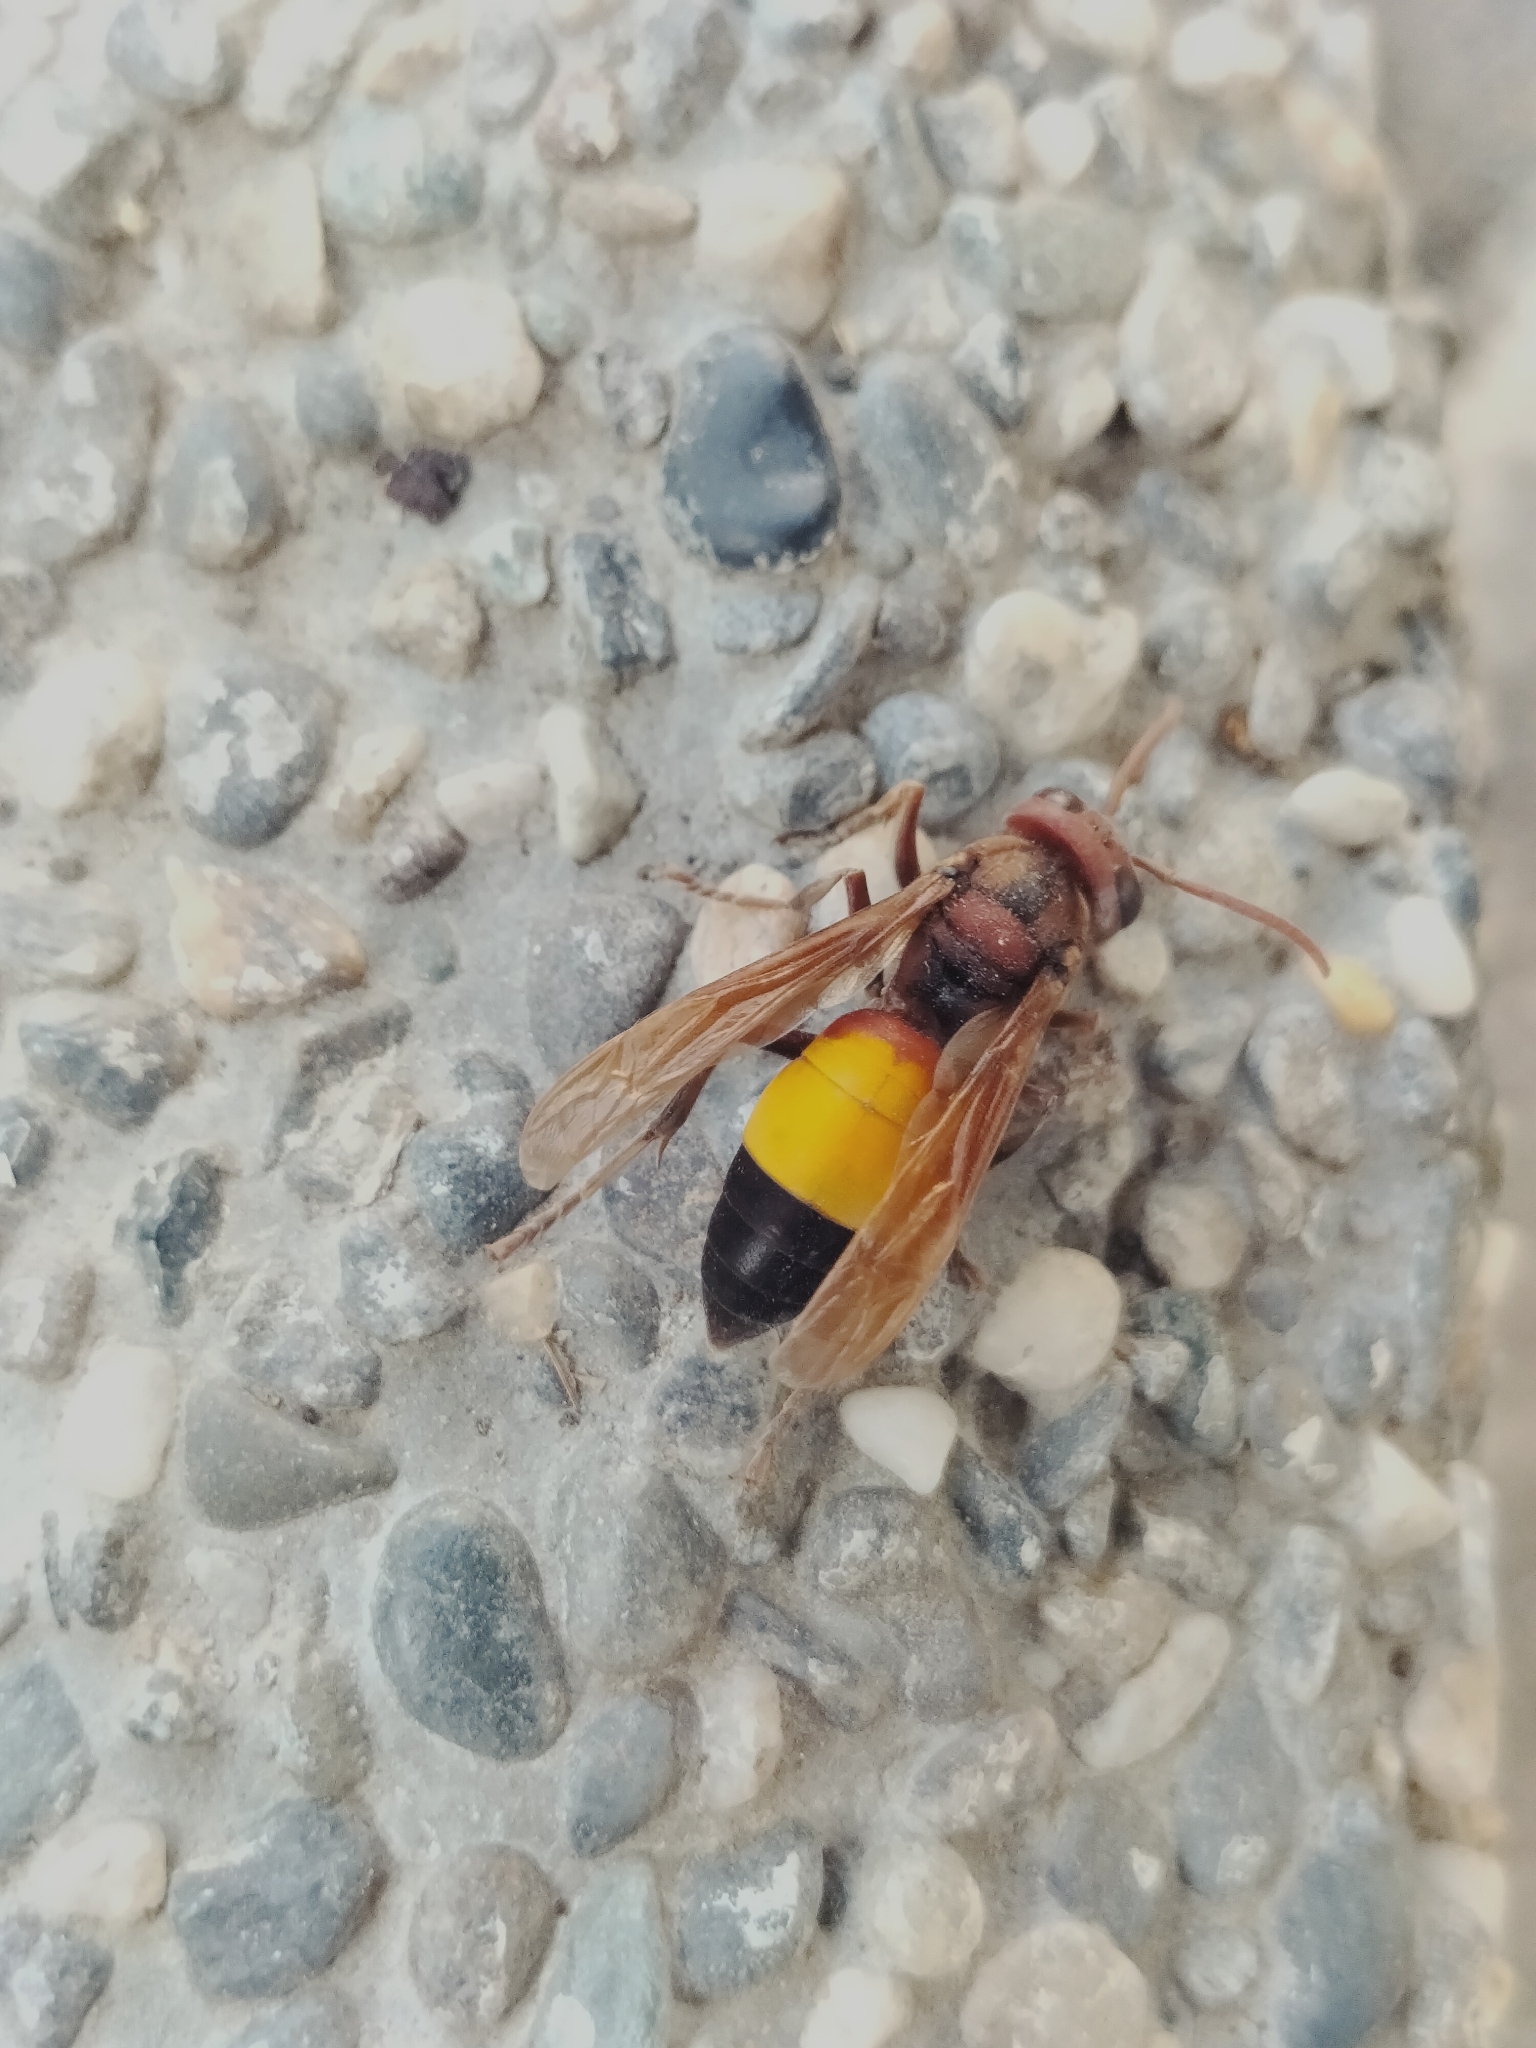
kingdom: Animalia
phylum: Arthropoda
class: Insecta
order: Hymenoptera
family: Vespidae
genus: Vespa
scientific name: Vespa affinis
